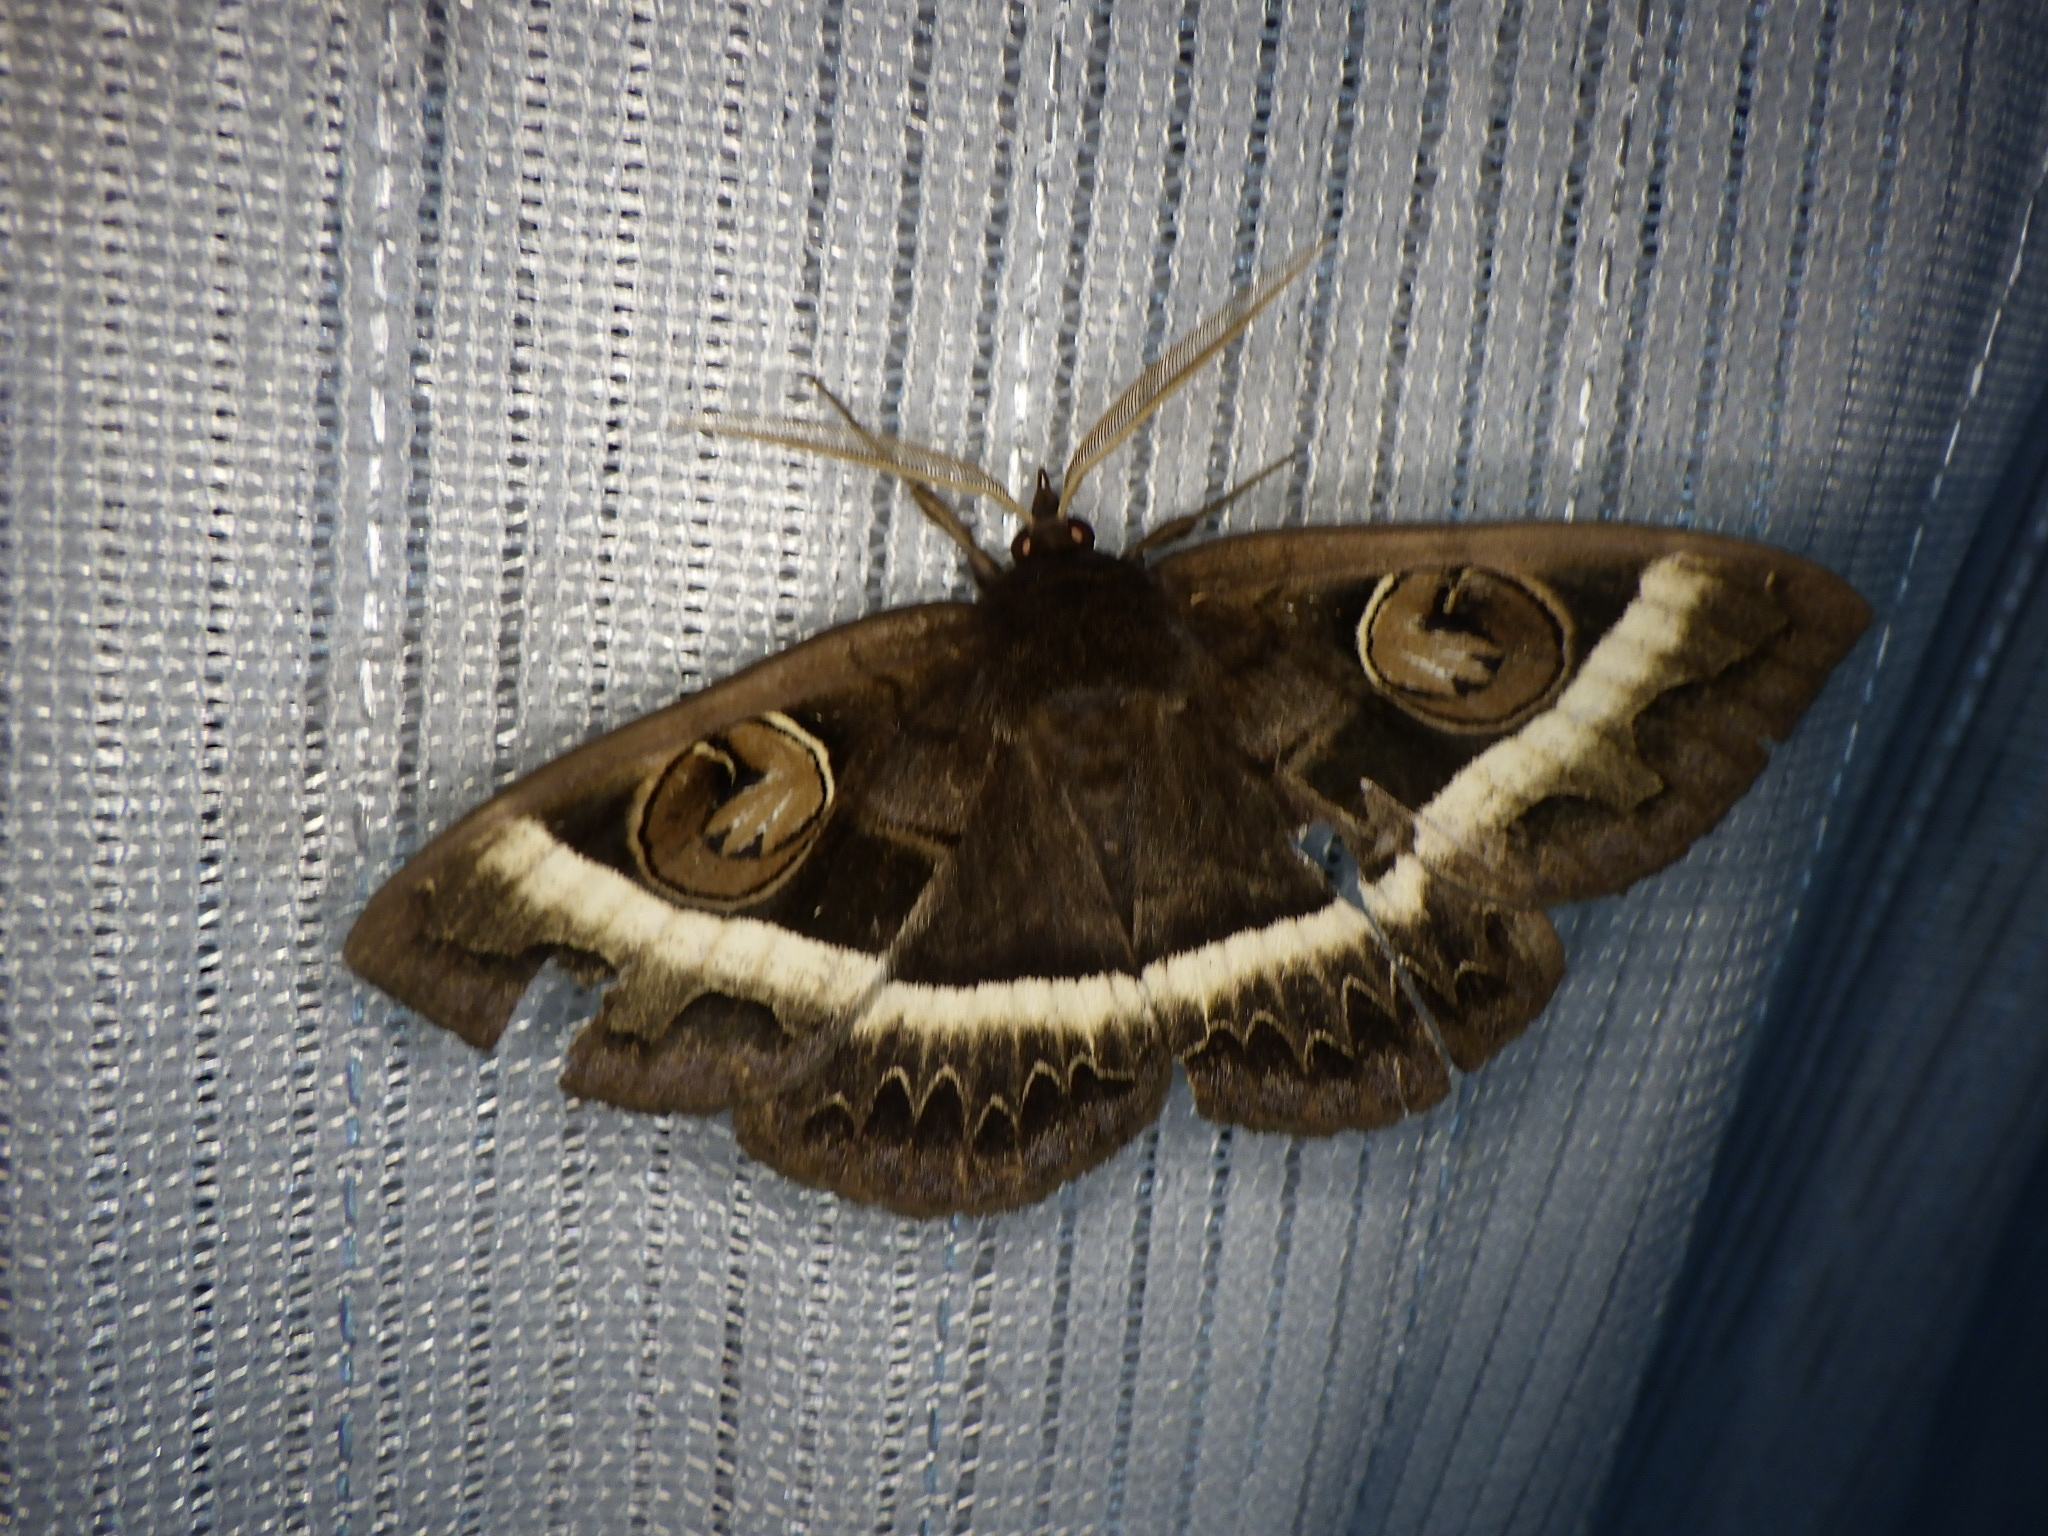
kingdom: Animalia
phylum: Arthropoda
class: Insecta
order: Lepidoptera
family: Erebidae
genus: Metopta
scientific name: Metopta rectifasciata
